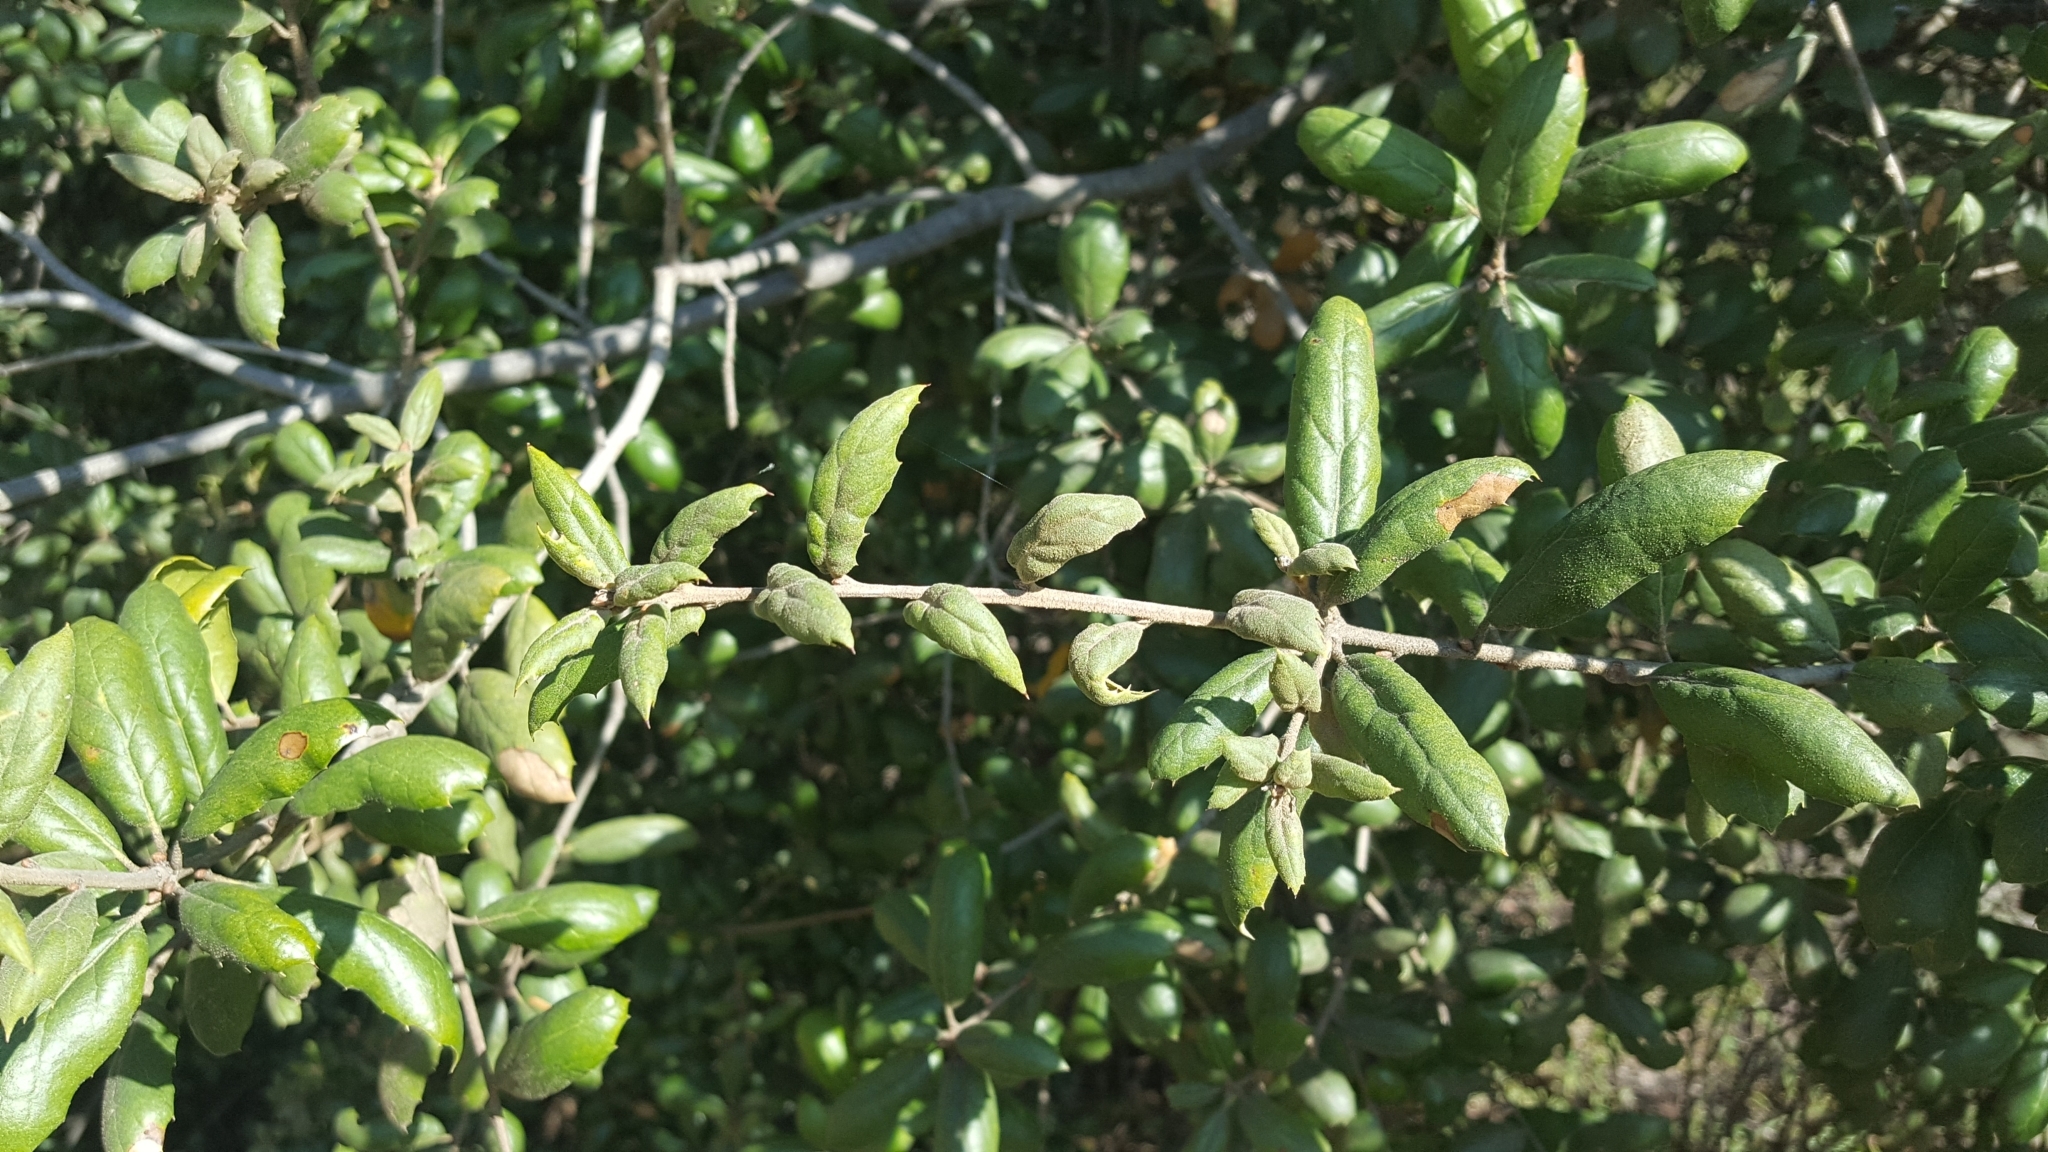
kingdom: Plantae
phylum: Tracheophyta
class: Magnoliopsida
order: Fagales
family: Fagaceae
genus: Quercus
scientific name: Quercus agrifolia
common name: California live oak
